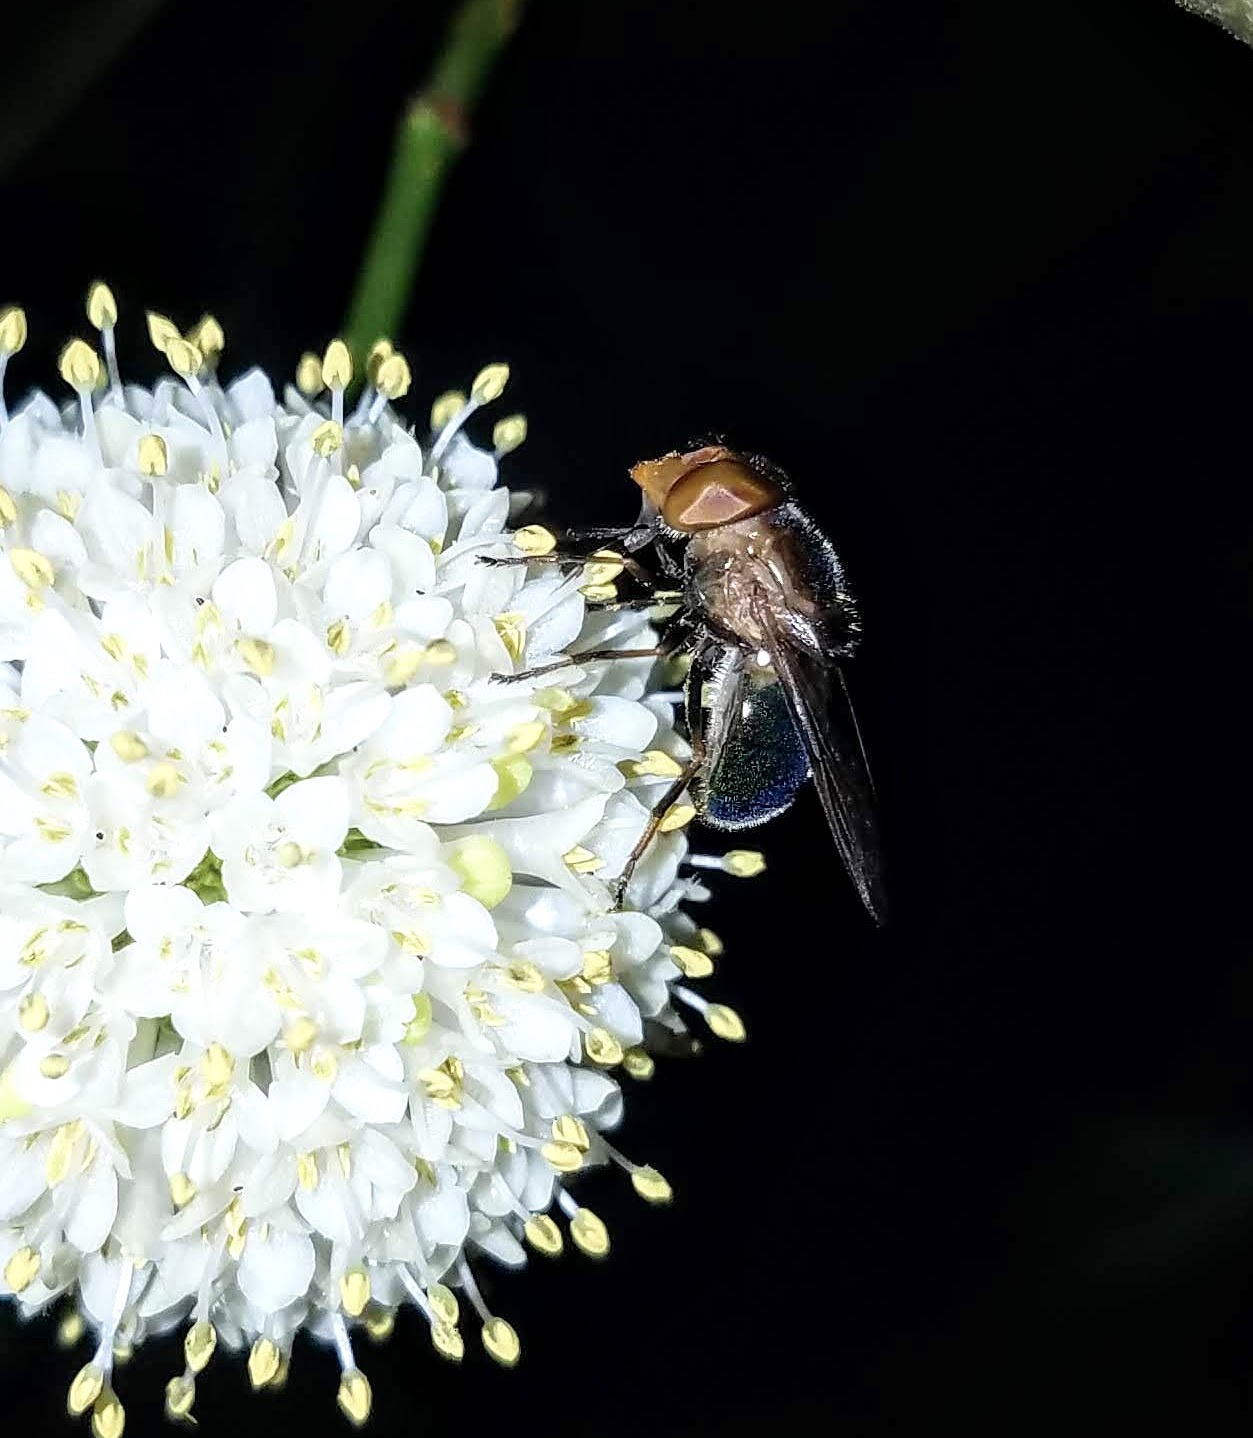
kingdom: Animalia
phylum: Arthropoda
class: Insecta
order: Diptera
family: Syrphidae
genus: Copestylum
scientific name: Copestylum
